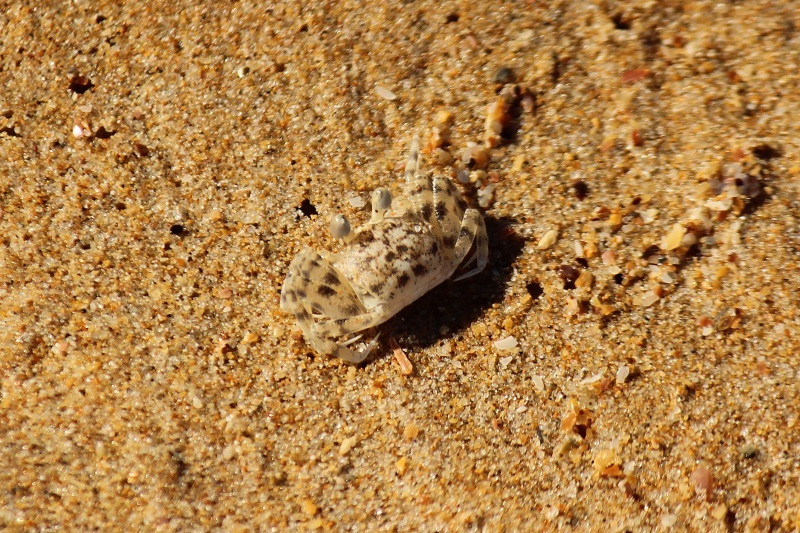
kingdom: Animalia
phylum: Arthropoda
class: Malacostraca
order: Decapoda
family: Ocypodidae
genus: Ocypode
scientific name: Ocypode
